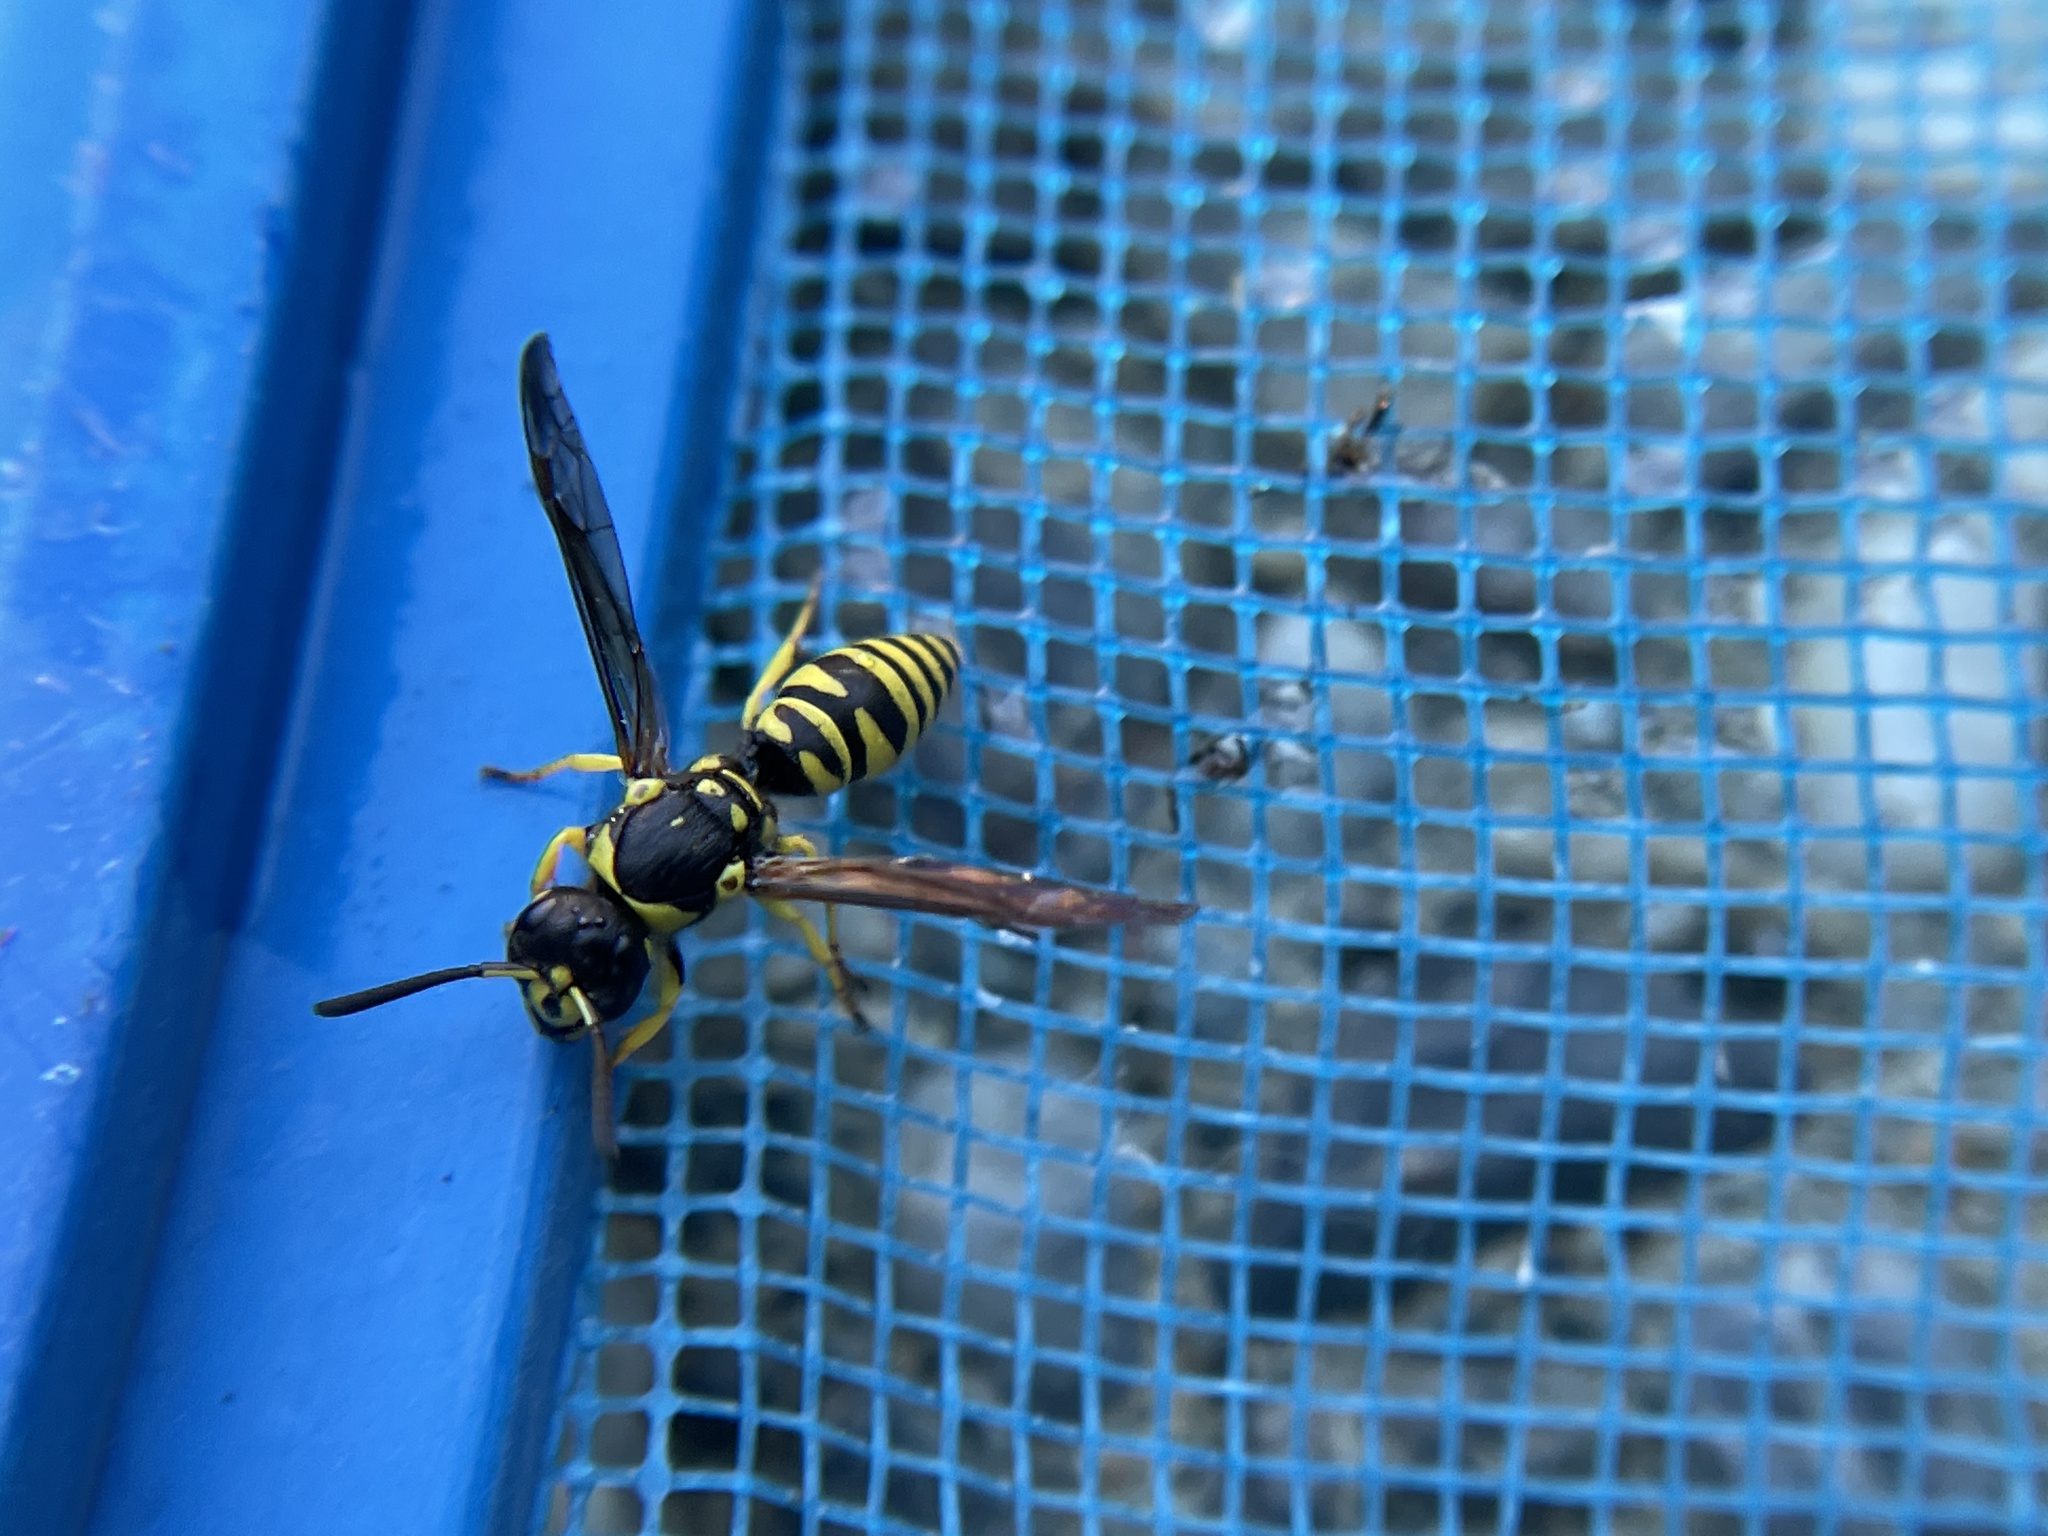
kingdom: Animalia
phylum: Arthropoda
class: Insecta
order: Hymenoptera
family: Vespidae
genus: Ancistrocerus
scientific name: Ancistrocerus adiabatus
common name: Bramble mason wasp
